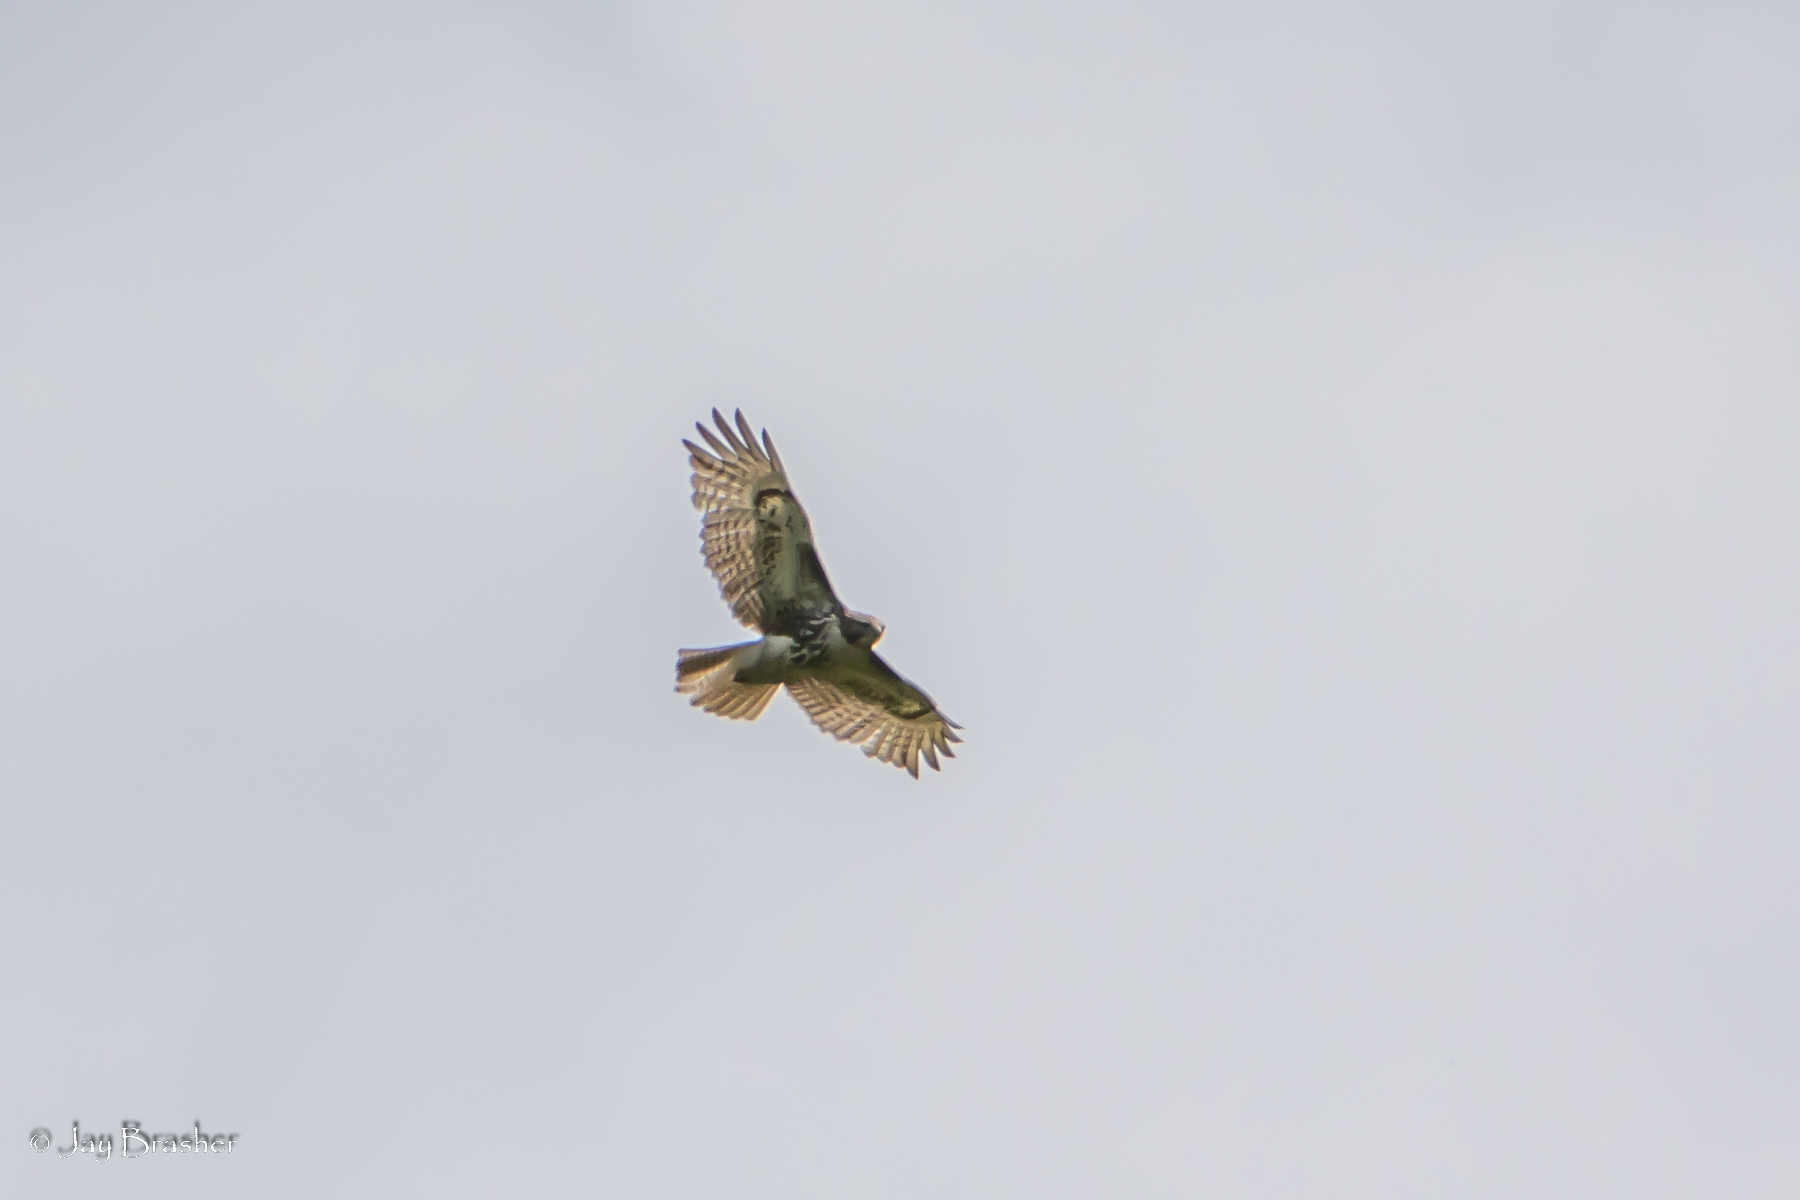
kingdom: Animalia
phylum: Chordata
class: Aves
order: Accipitriformes
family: Accipitridae
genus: Buteo
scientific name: Buteo jamaicensis
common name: Red-tailed hawk
